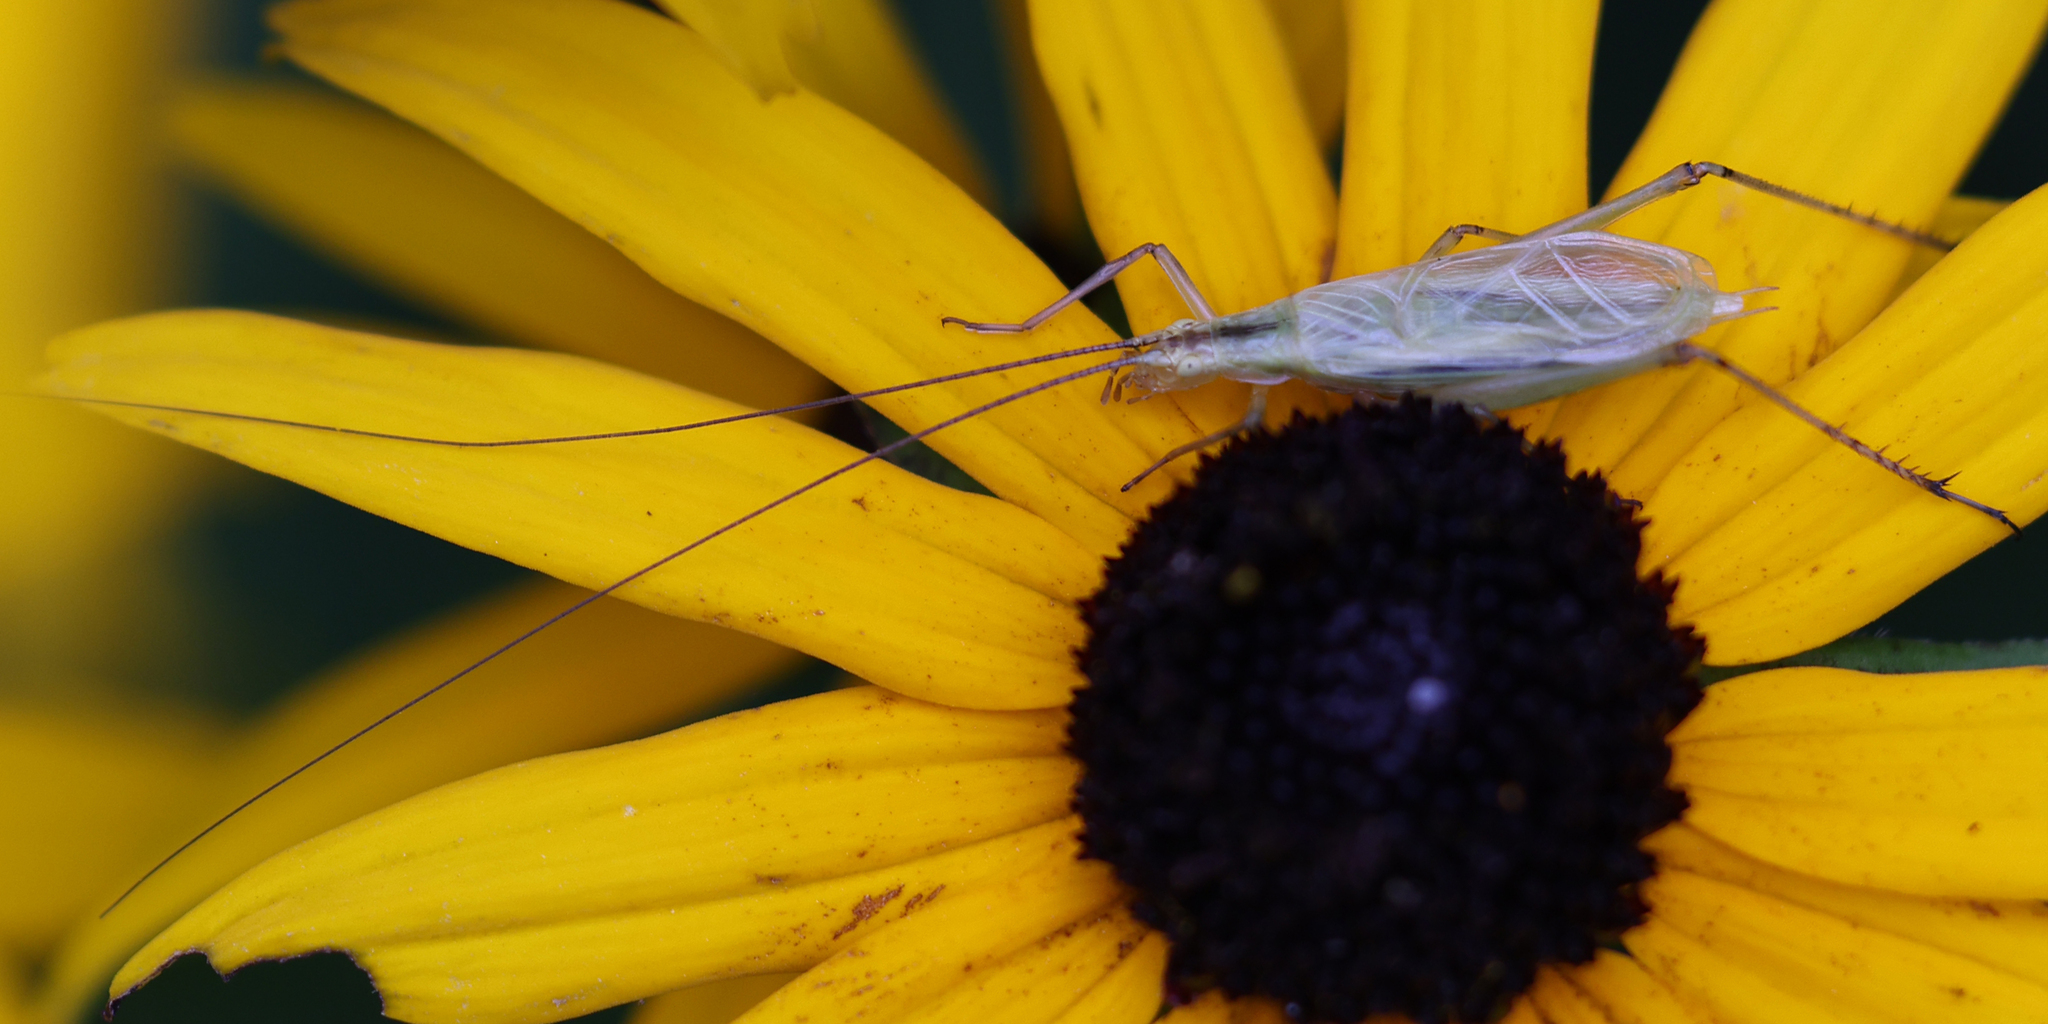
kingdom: Animalia
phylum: Arthropoda
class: Insecta
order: Orthoptera
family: Gryllidae
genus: Oecanthus
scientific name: Oecanthus nigricornis
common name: Black-horned tree cricket
